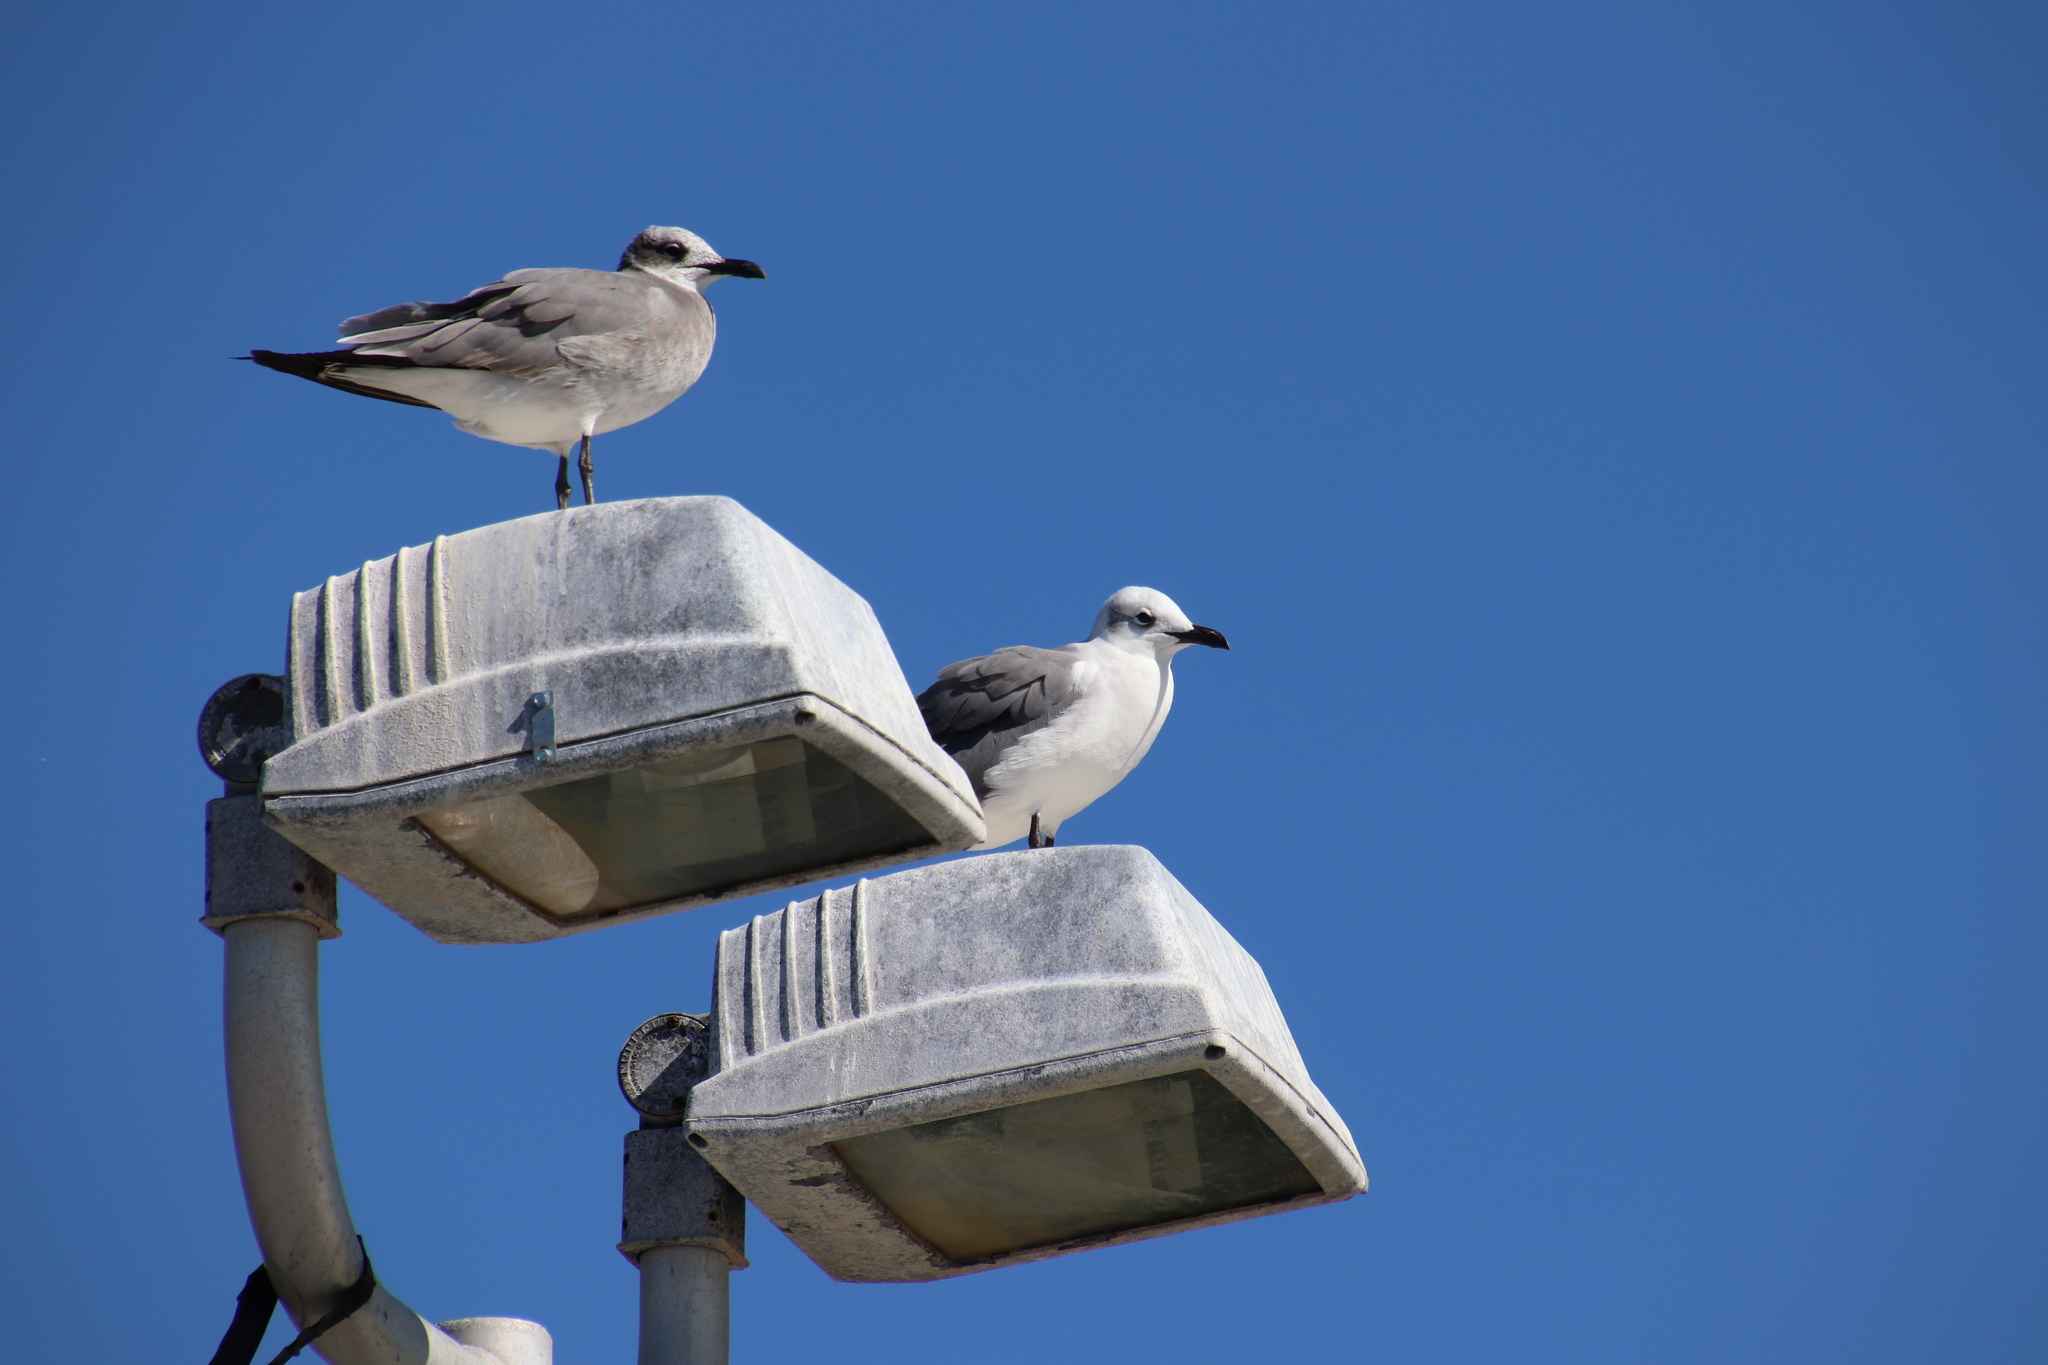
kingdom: Animalia
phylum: Chordata
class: Aves
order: Charadriiformes
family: Laridae
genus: Leucophaeus
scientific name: Leucophaeus atricilla
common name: Laughing gull
